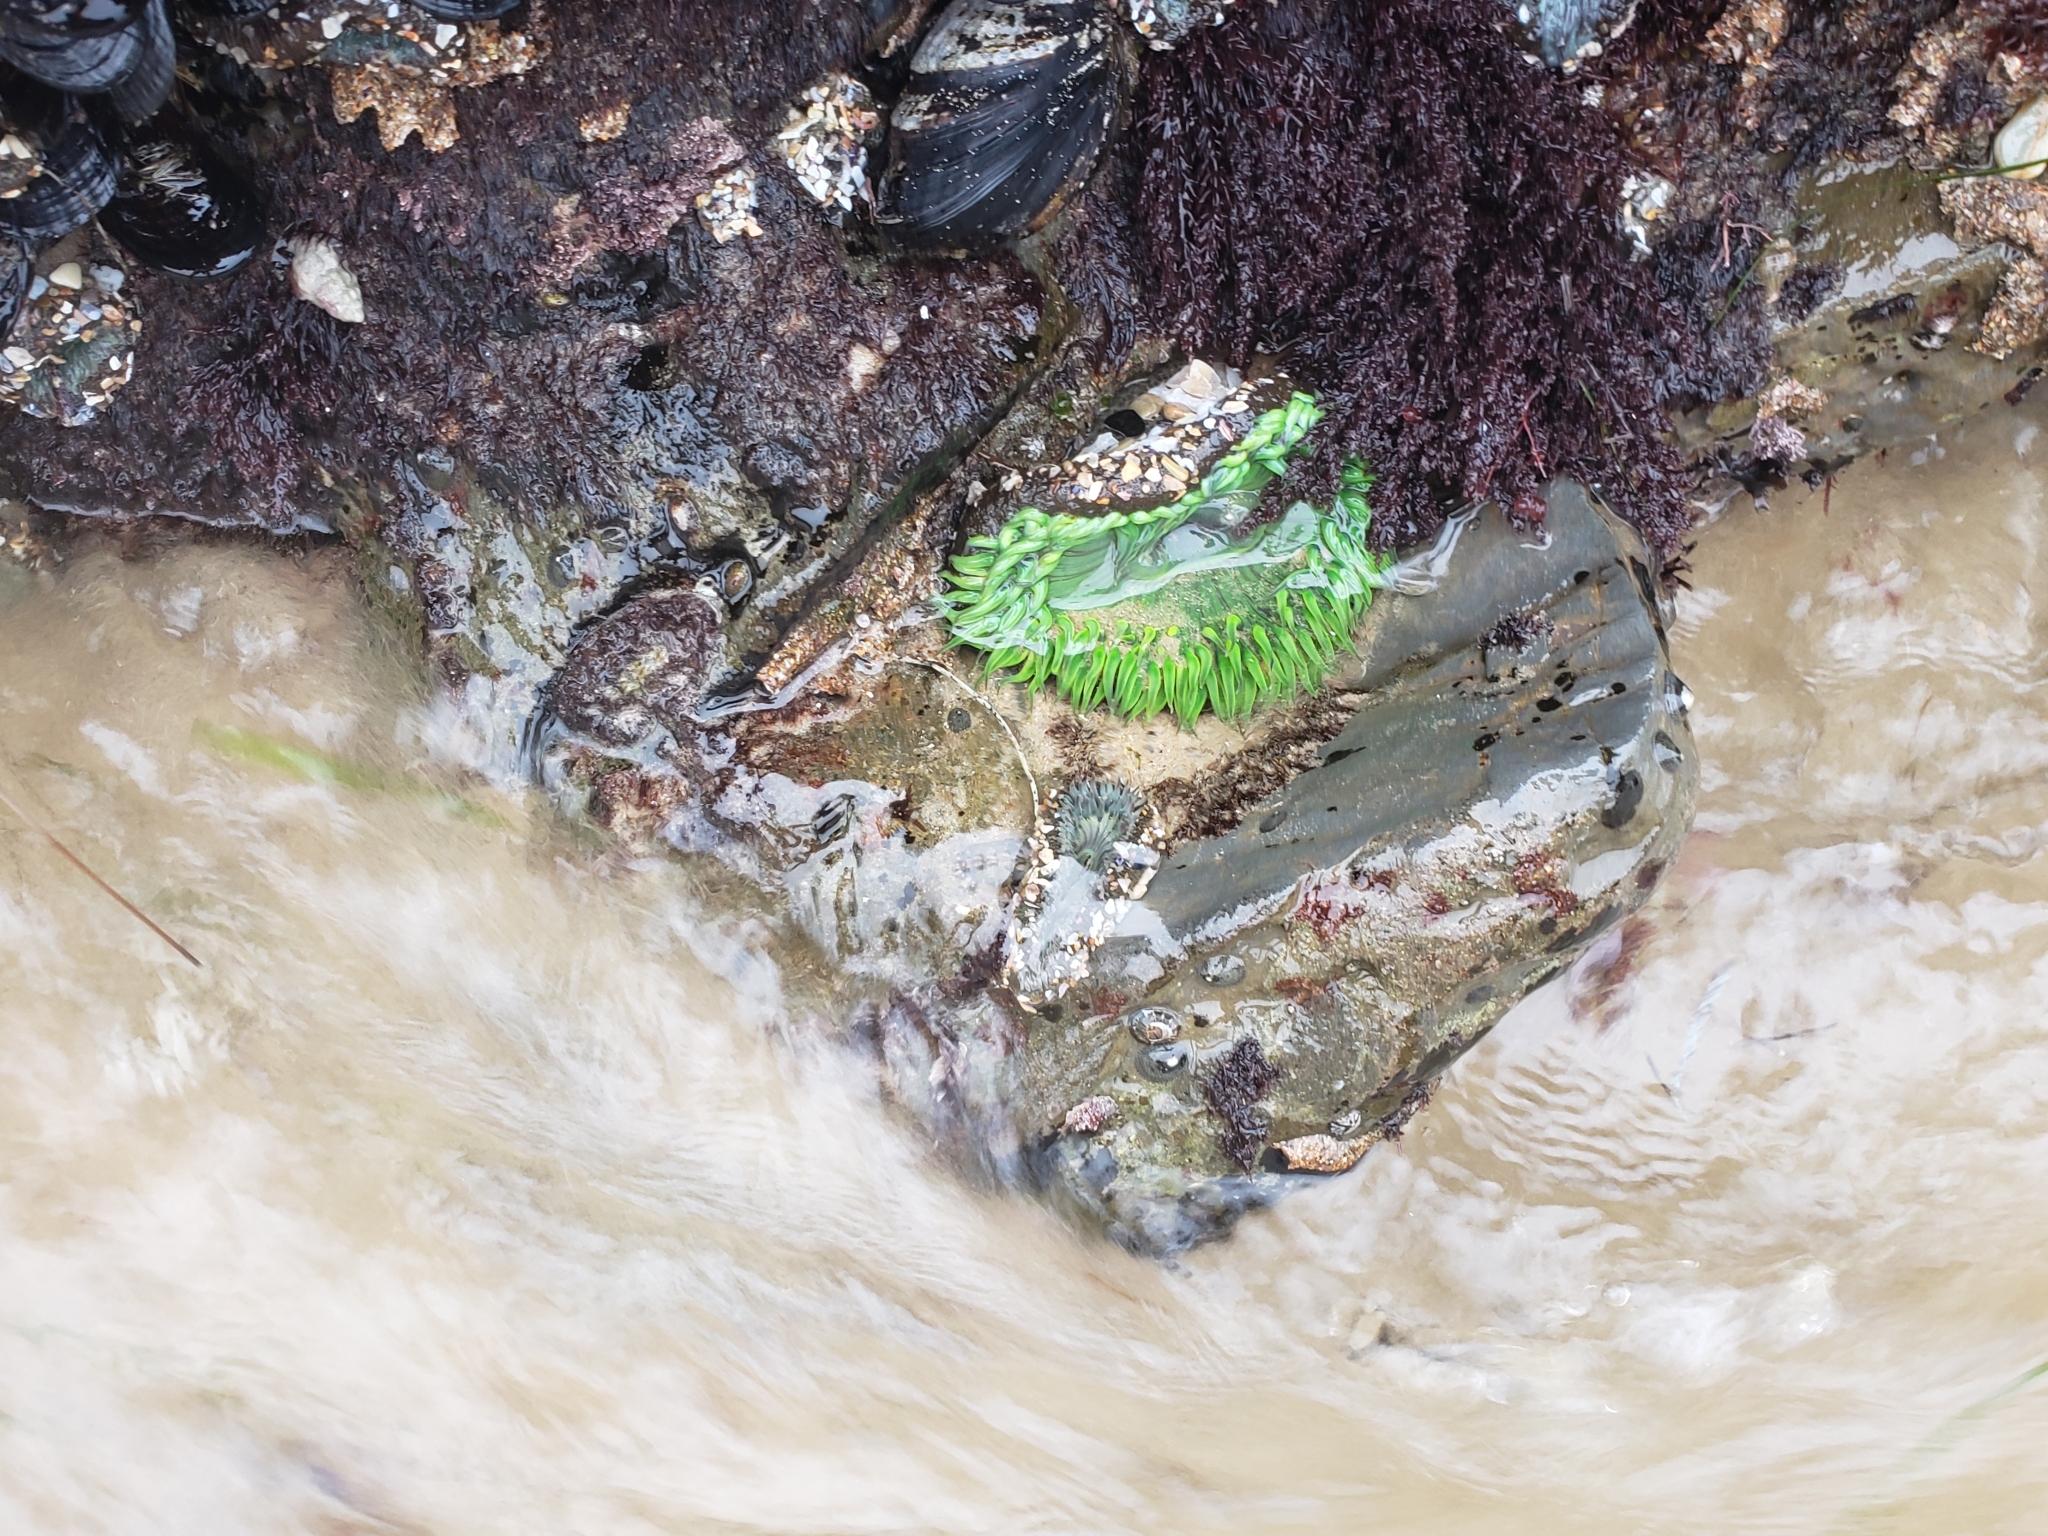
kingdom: Animalia
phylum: Cnidaria
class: Anthozoa
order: Actiniaria
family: Actiniidae
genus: Anthopleura
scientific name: Anthopleura sola
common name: Sun anemone
